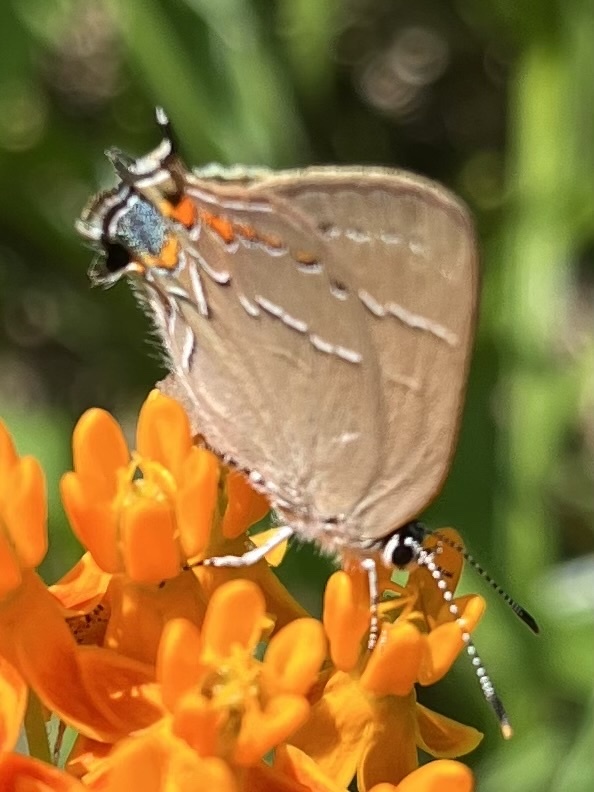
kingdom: Animalia
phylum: Arthropoda
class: Insecta
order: Lepidoptera
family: Lycaenidae
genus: Fixsenia
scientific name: Fixsenia favonius
